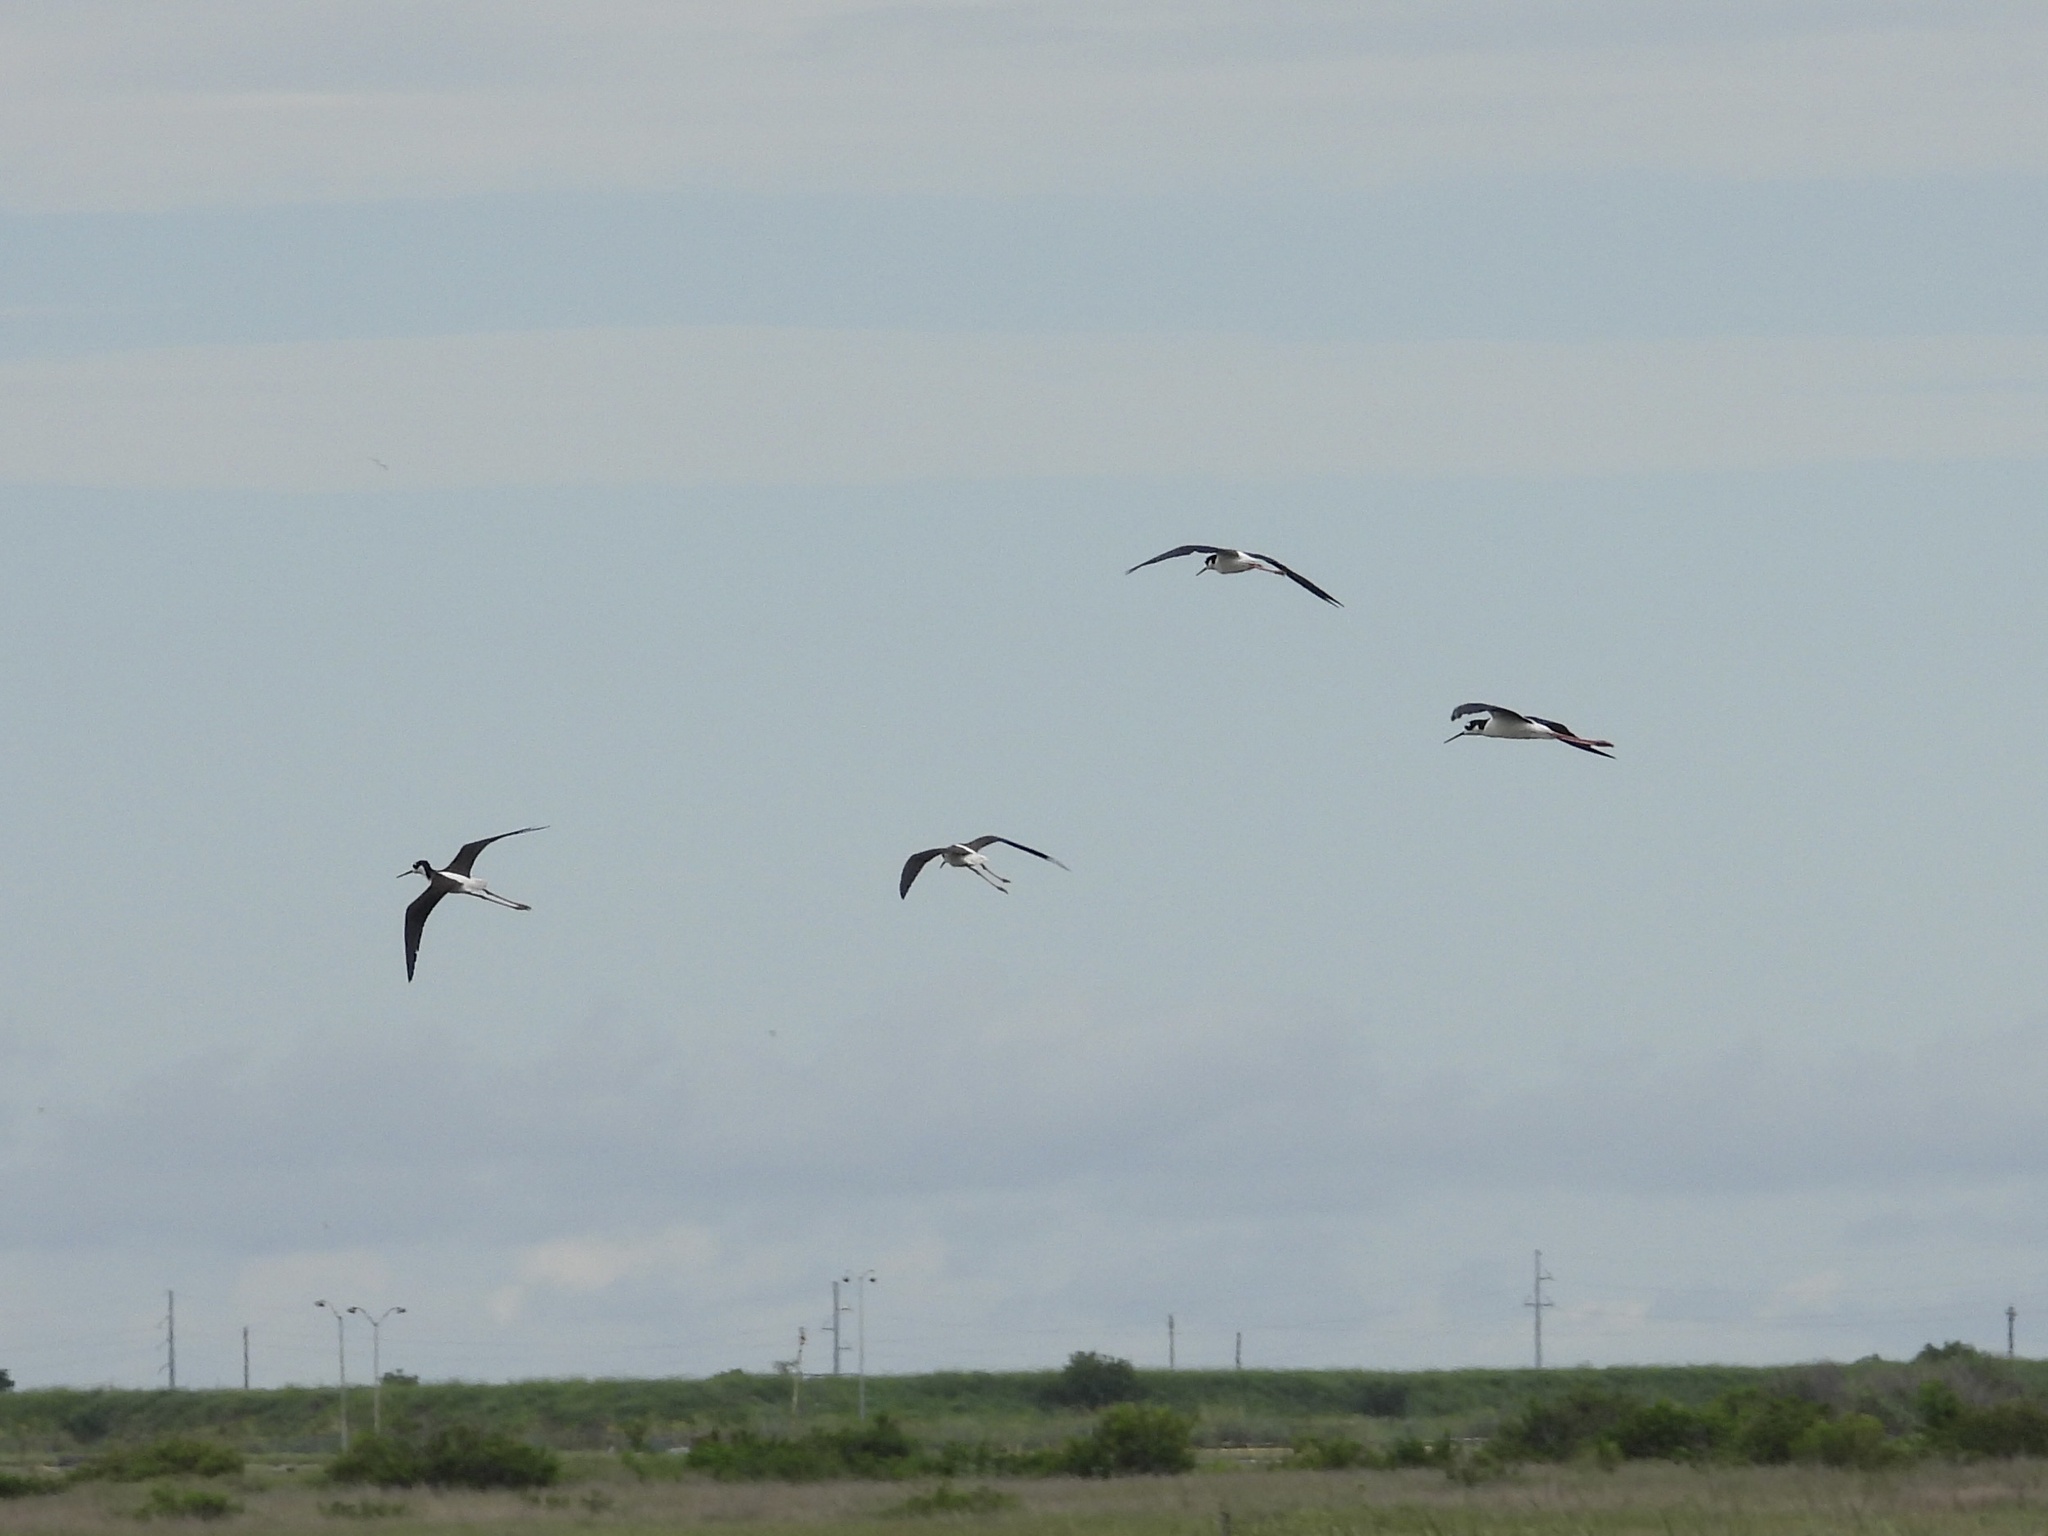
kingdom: Animalia
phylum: Chordata
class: Aves
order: Charadriiformes
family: Recurvirostridae
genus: Himantopus
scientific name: Himantopus mexicanus
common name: Black-necked stilt
